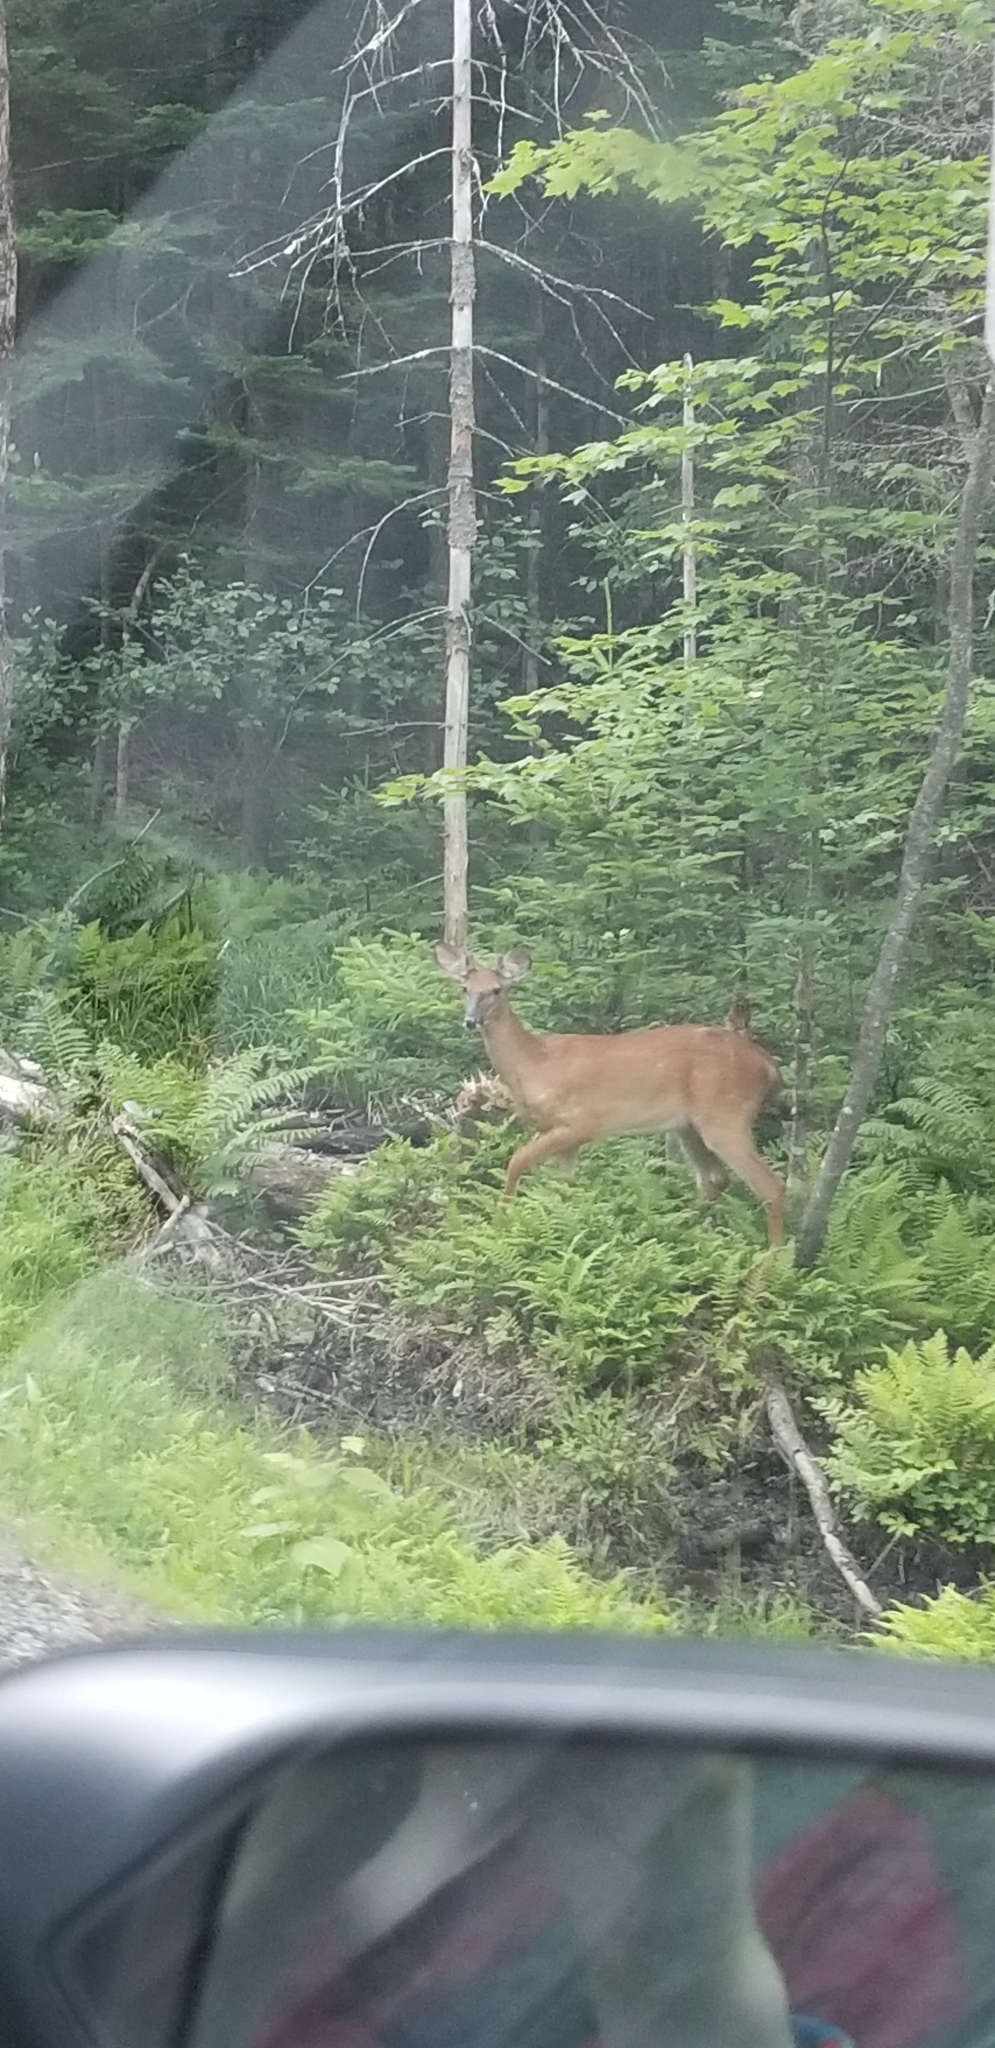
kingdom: Animalia
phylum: Chordata
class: Mammalia
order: Artiodactyla
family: Cervidae
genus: Odocoileus
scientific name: Odocoileus virginianus
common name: White-tailed deer
